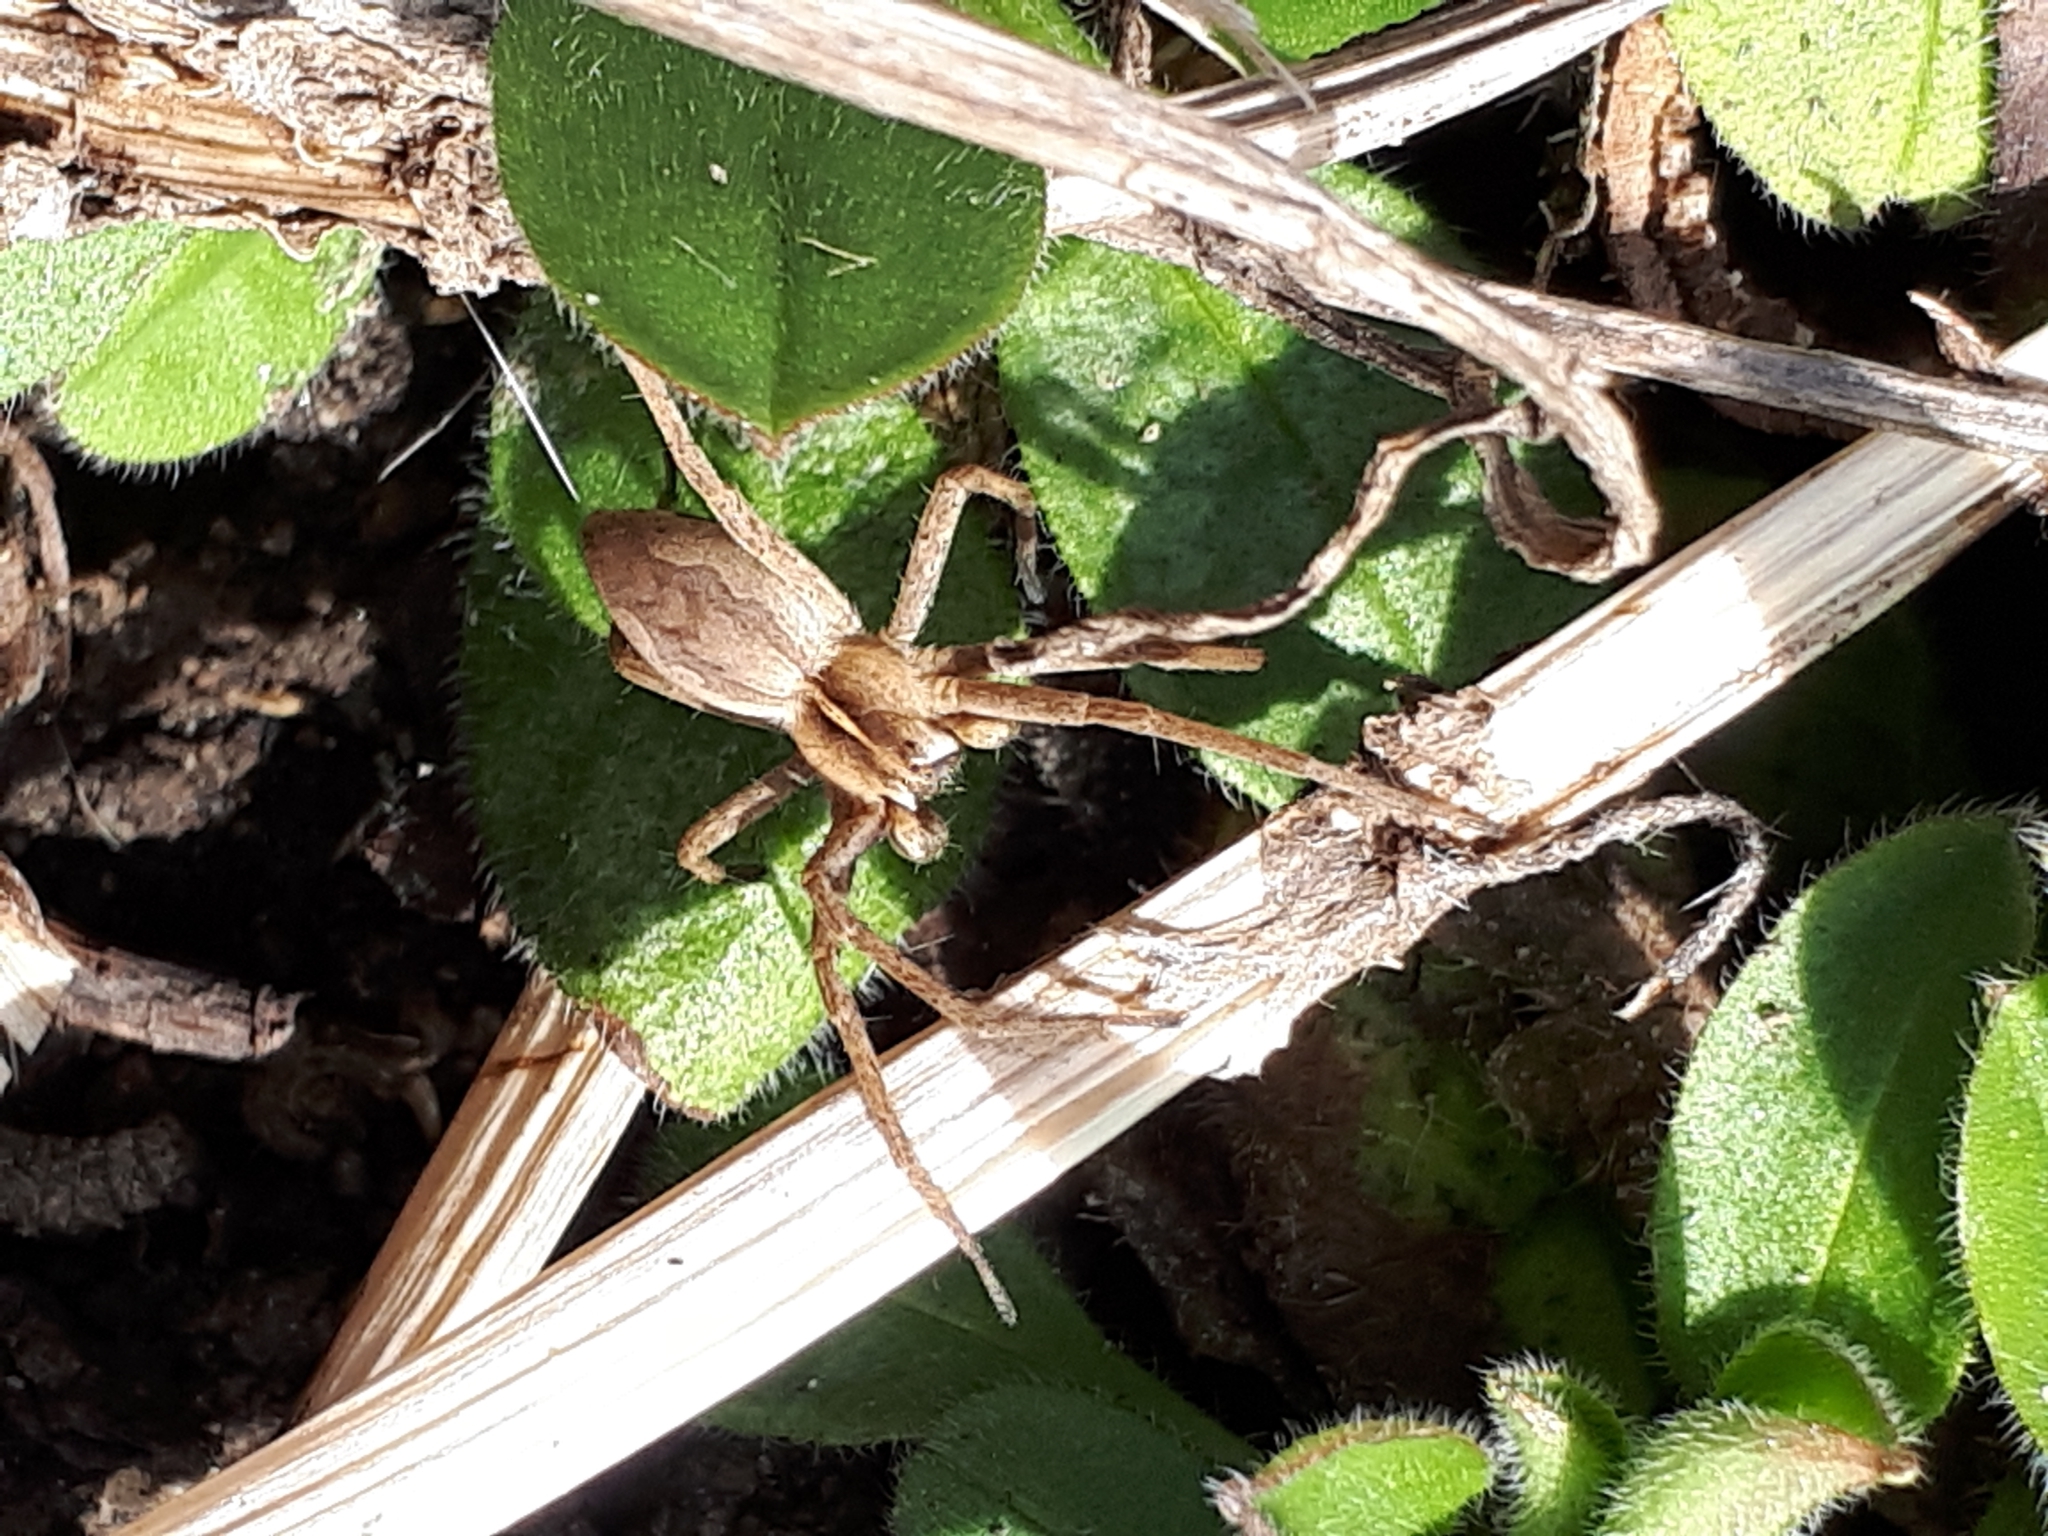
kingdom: Animalia
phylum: Arthropoda
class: Arachnida
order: Araneae
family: Pisauridae
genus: Pisaura
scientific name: Pisaura mirabilis
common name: Tent spider
